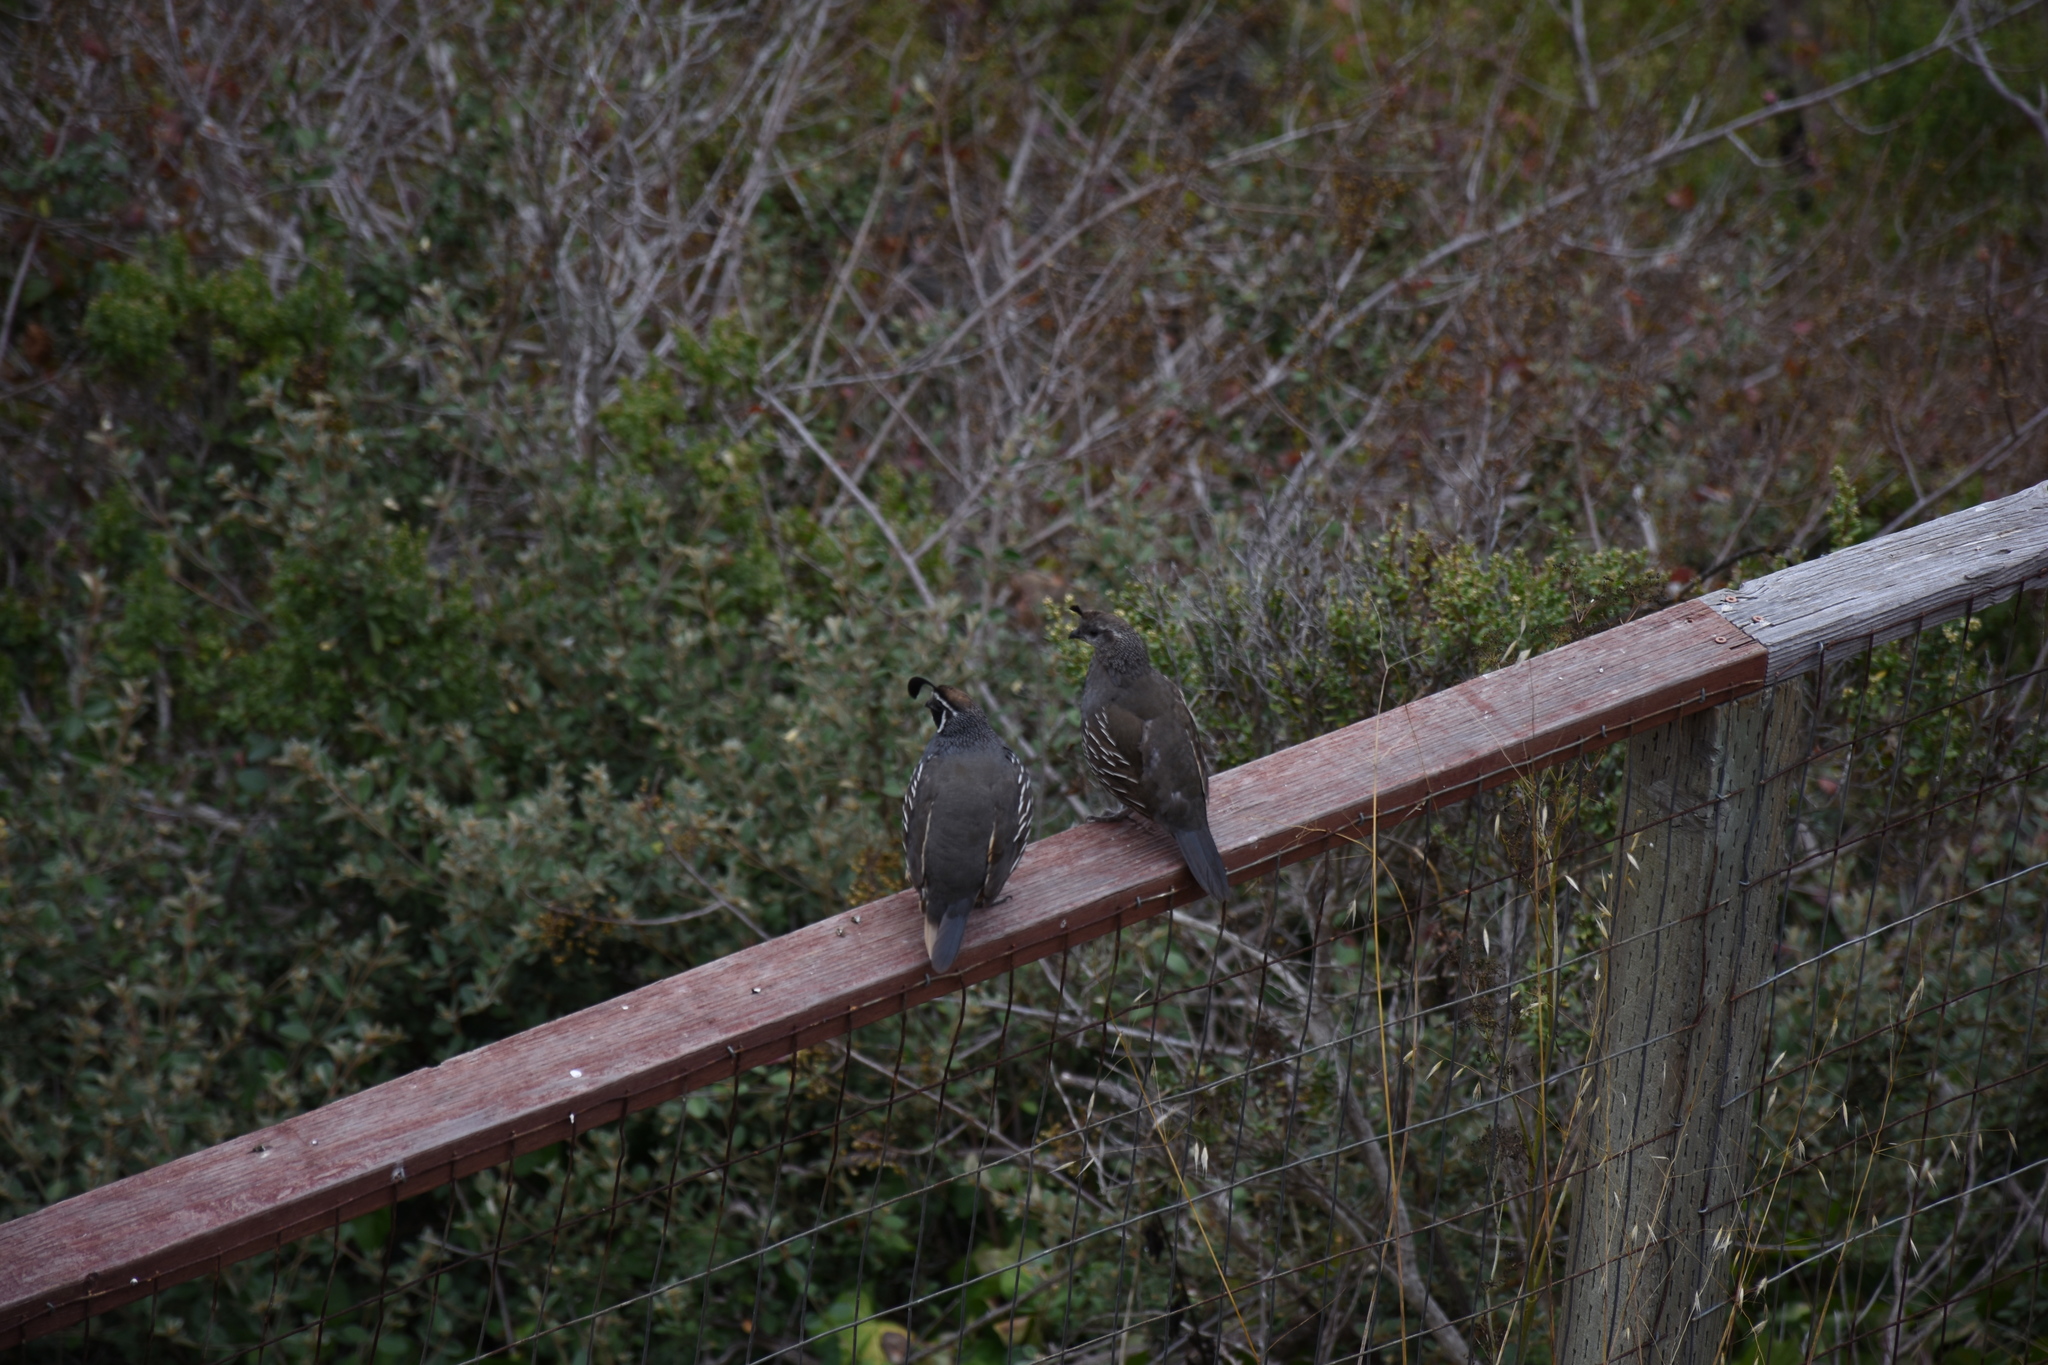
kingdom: Animalia
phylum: Chordata
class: Aves
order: Galliformes
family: Odontophoridae
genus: Callipepla
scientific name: Callipepla californica
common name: California quail
